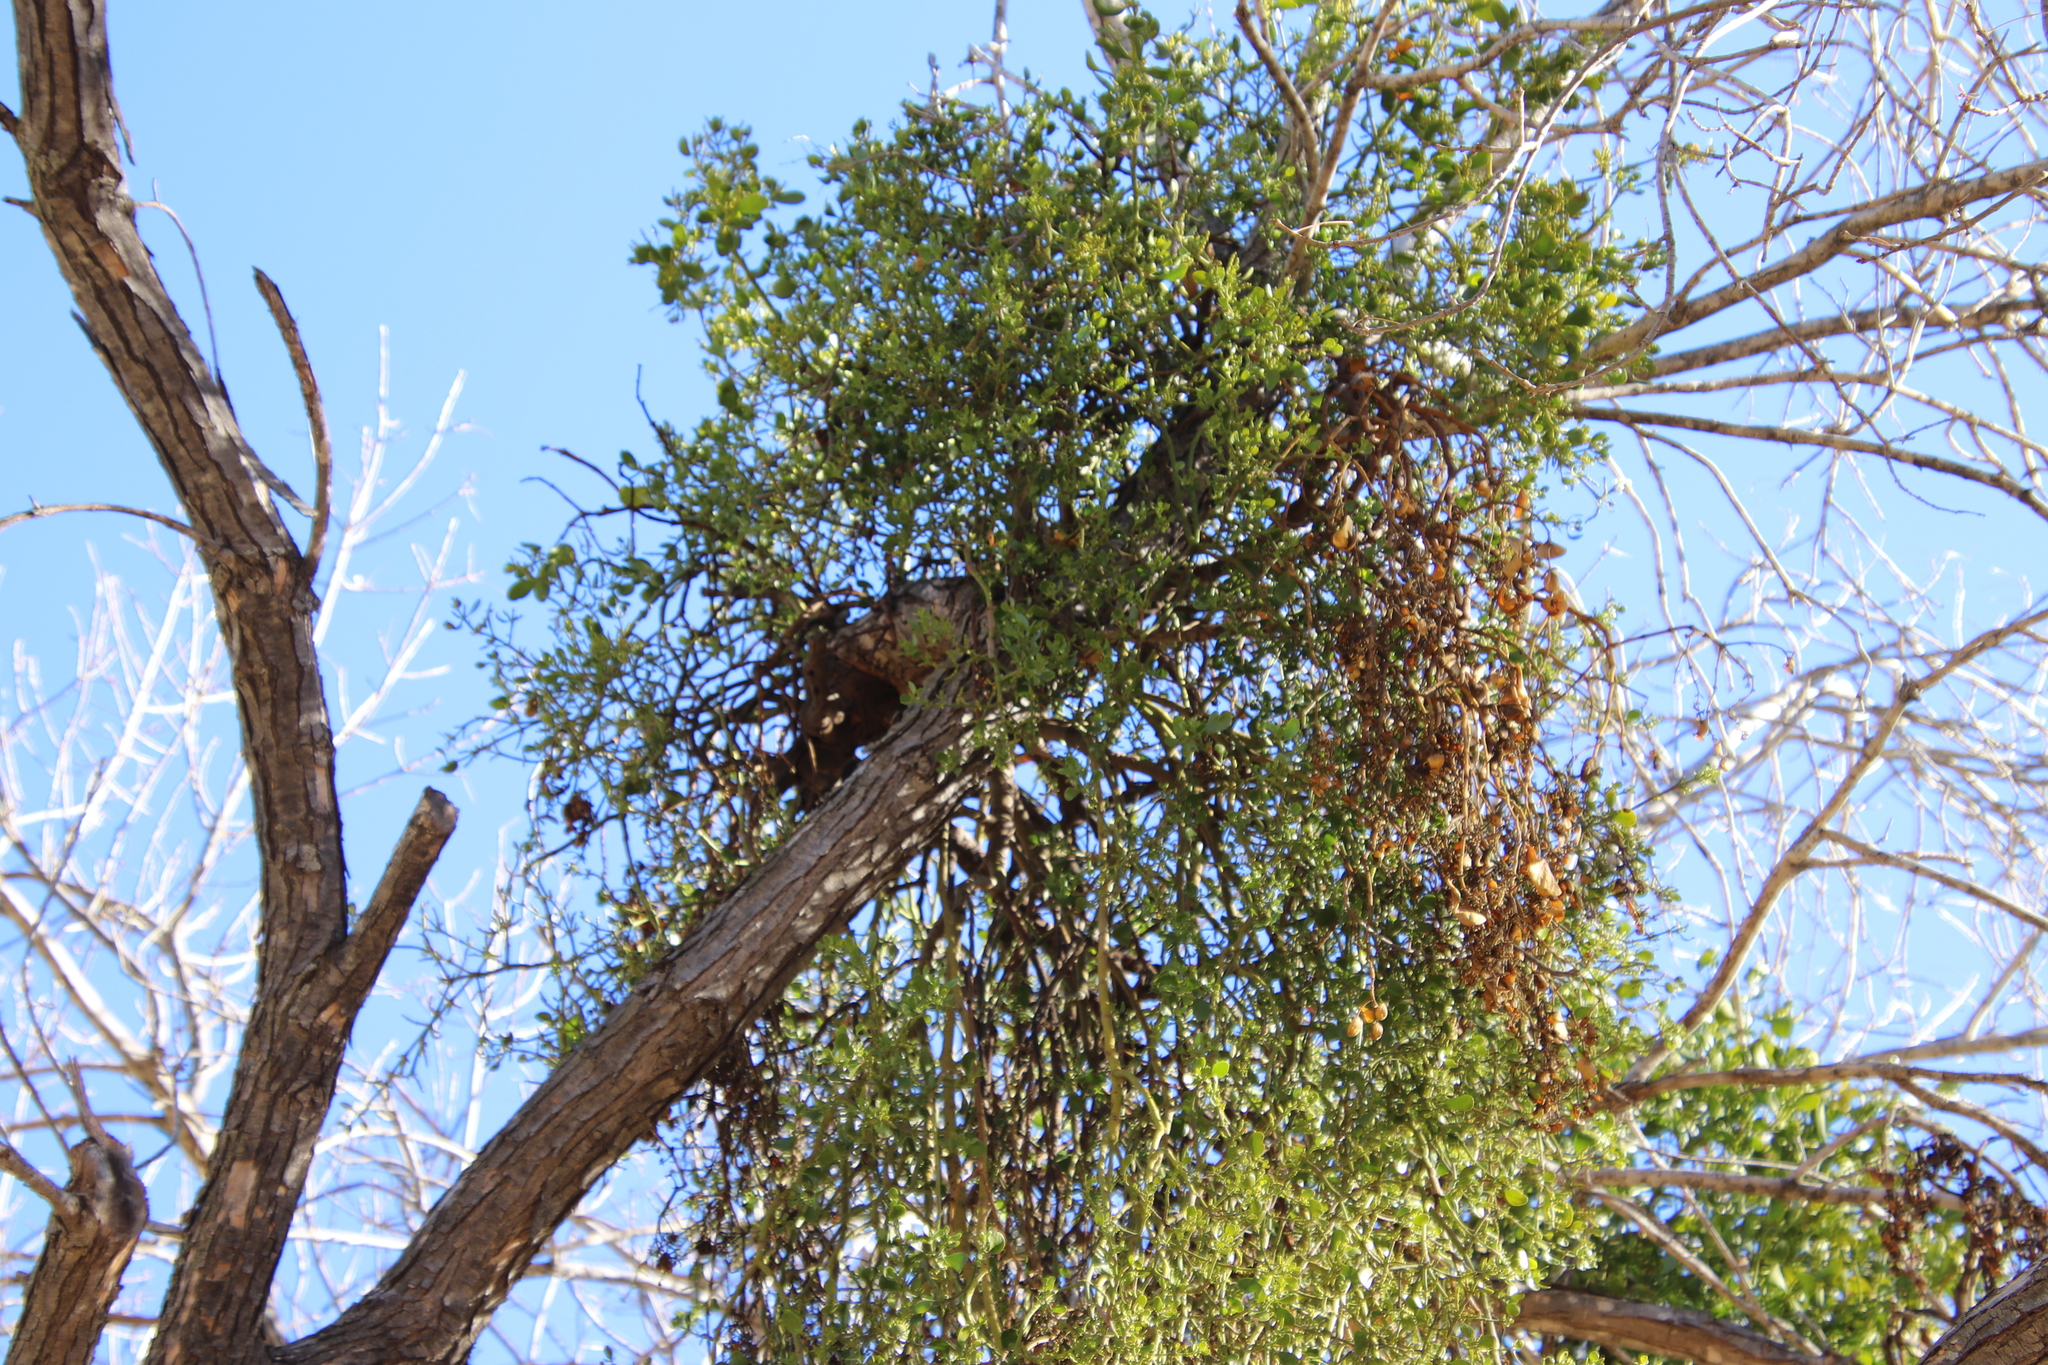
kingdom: Plantae
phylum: Tracheophyta
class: Magnoliopsida
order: Santalales
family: Viscaceae
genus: Phoradendron
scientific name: Phoradendron leucarpum
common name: Pacific mistletoe
